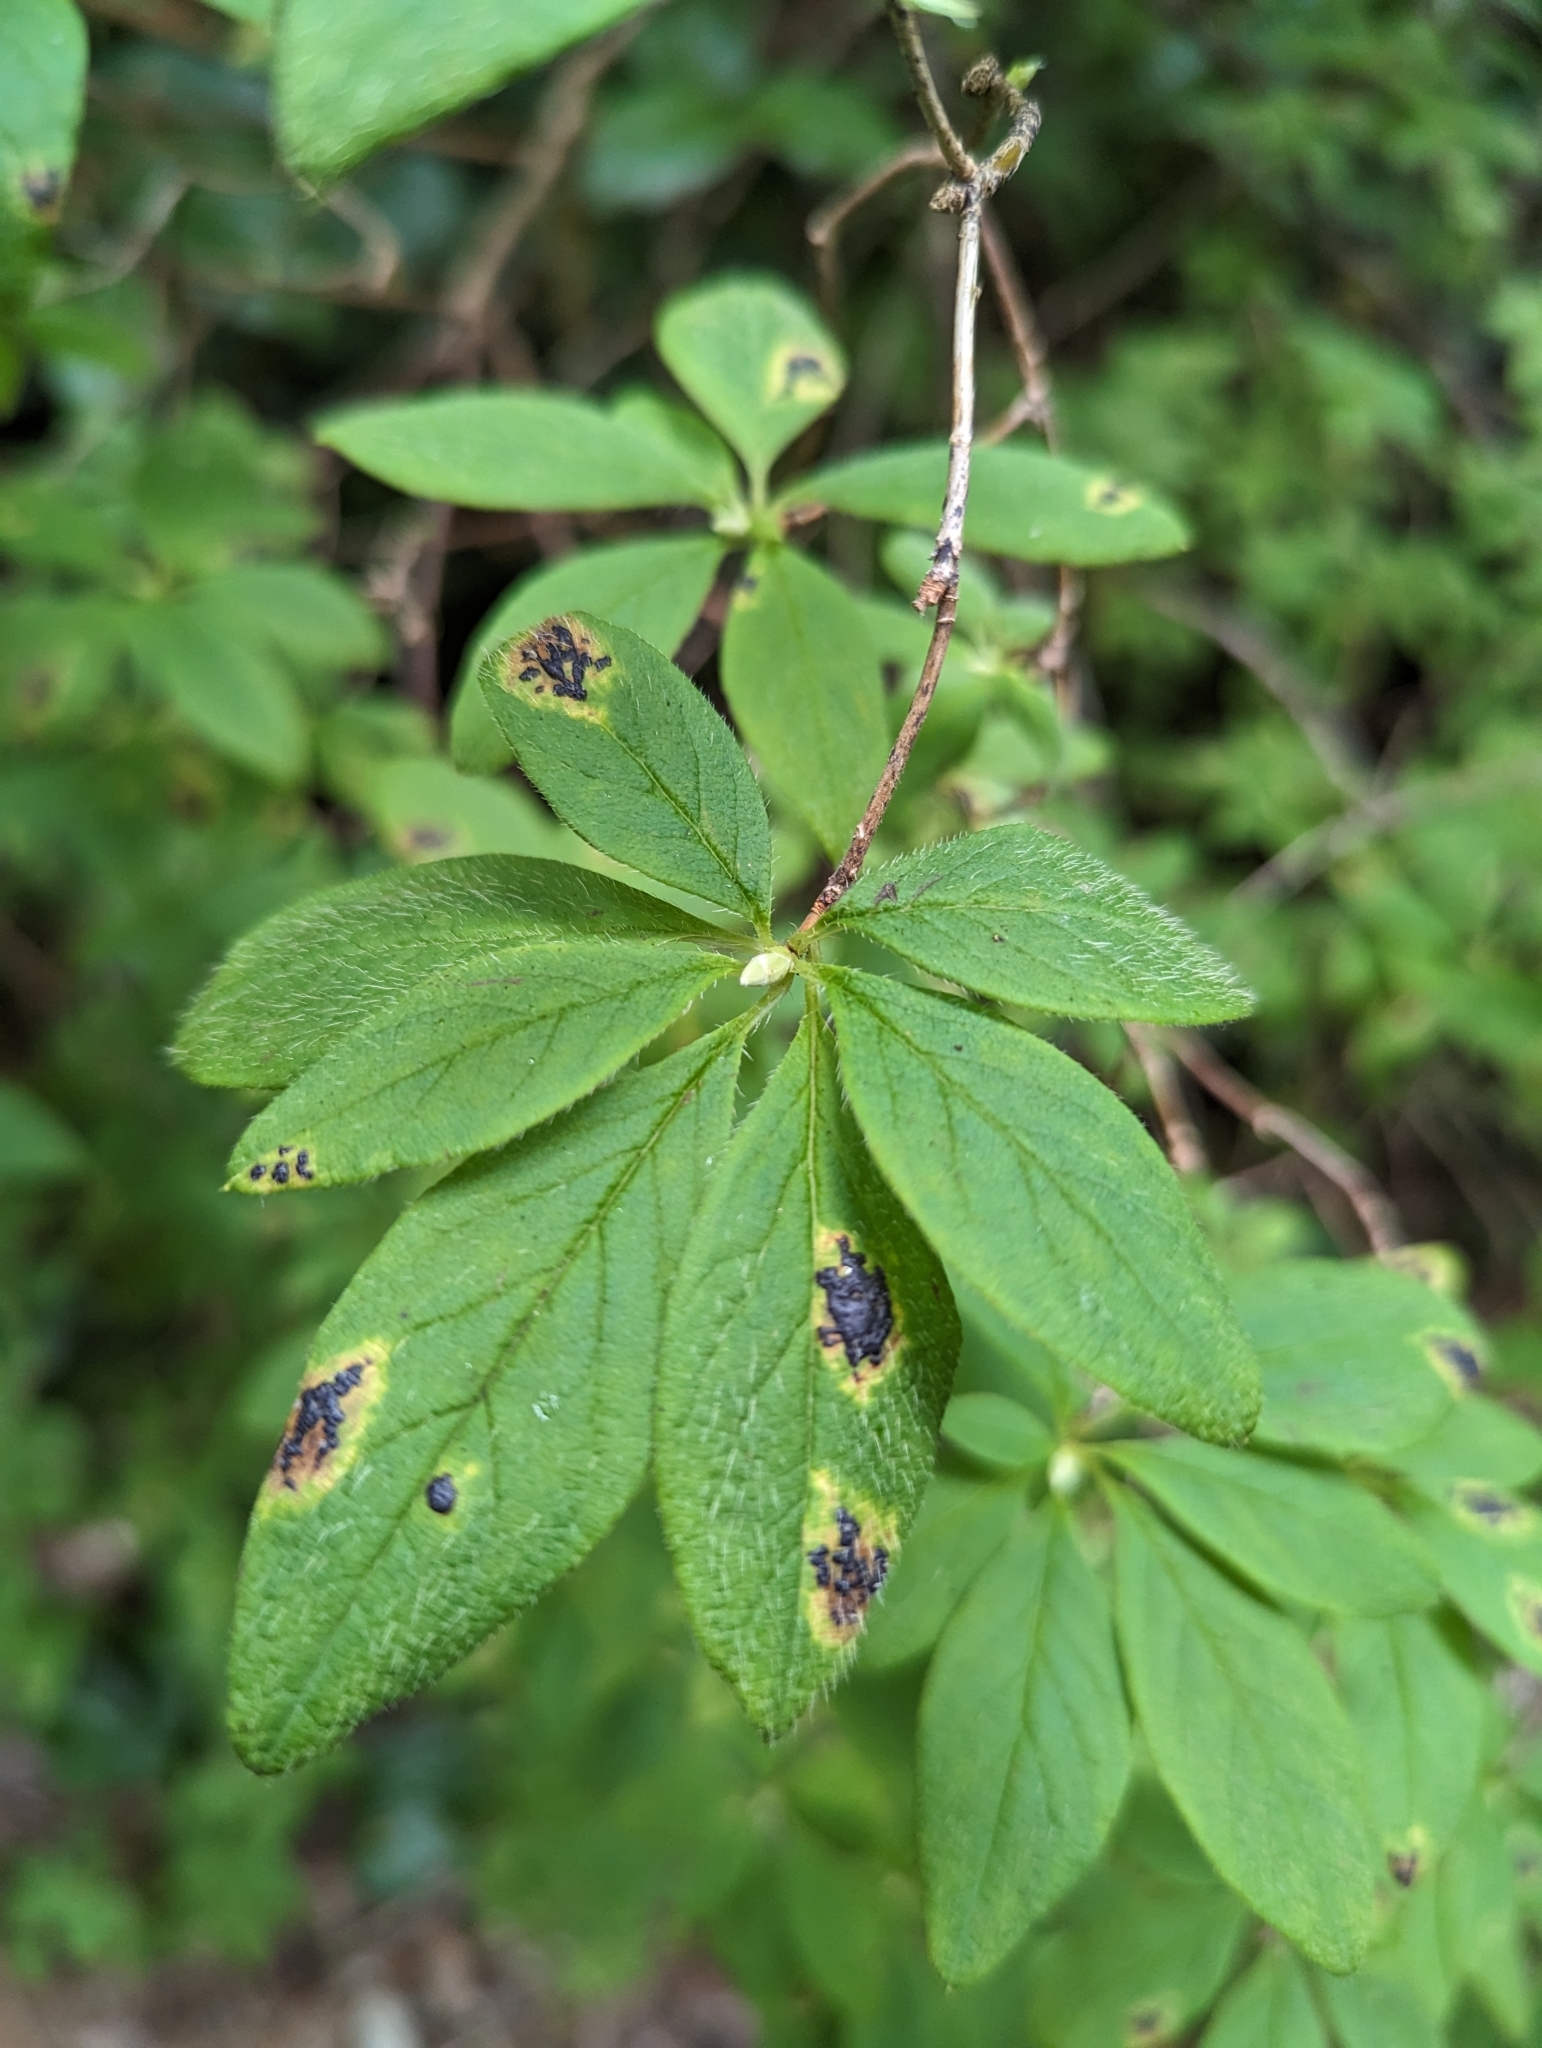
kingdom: Plantae
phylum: Tracheophyta
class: Magnoliopsida
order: Ericales
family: Ericaceae
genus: Rhododendron
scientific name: Rhododendron menziesii
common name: Pacific menziesia
